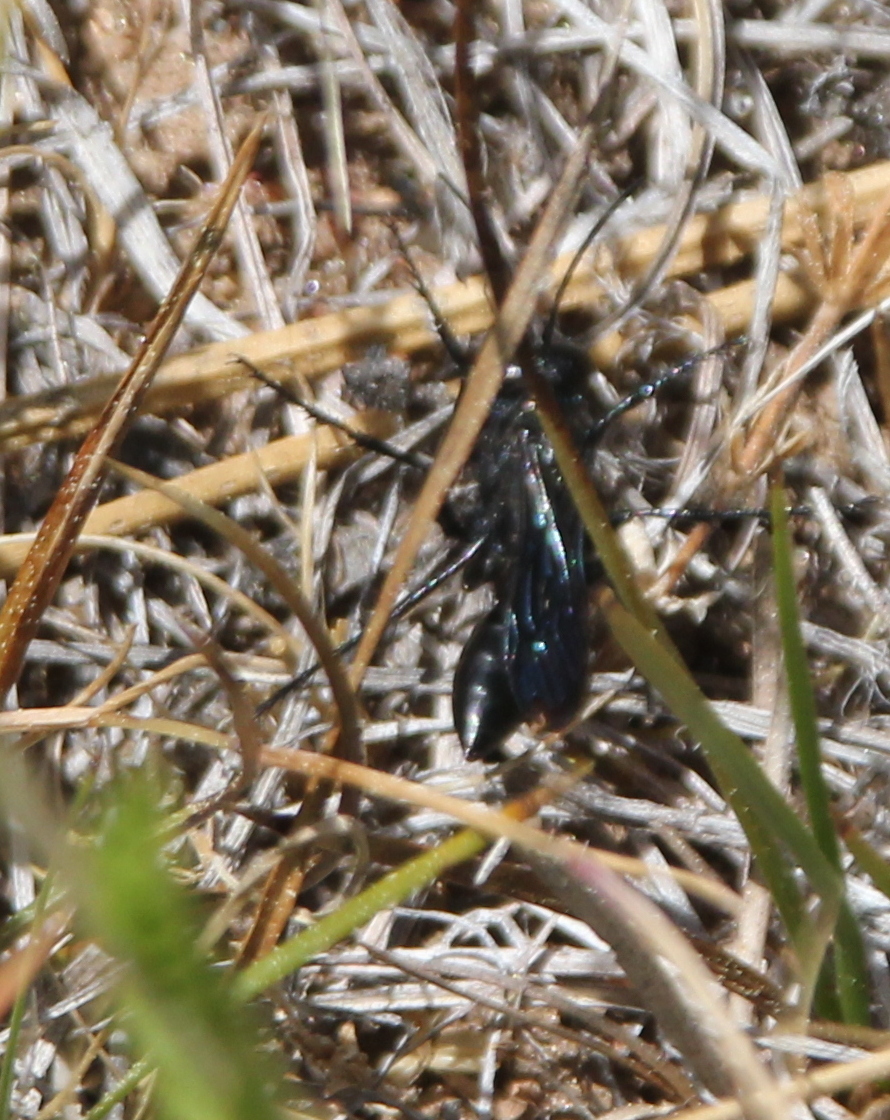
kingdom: Animalia
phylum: Arthropoda
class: Insecta
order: Hymenoptera
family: Sphecidae
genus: Podalonia
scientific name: Podalonia
